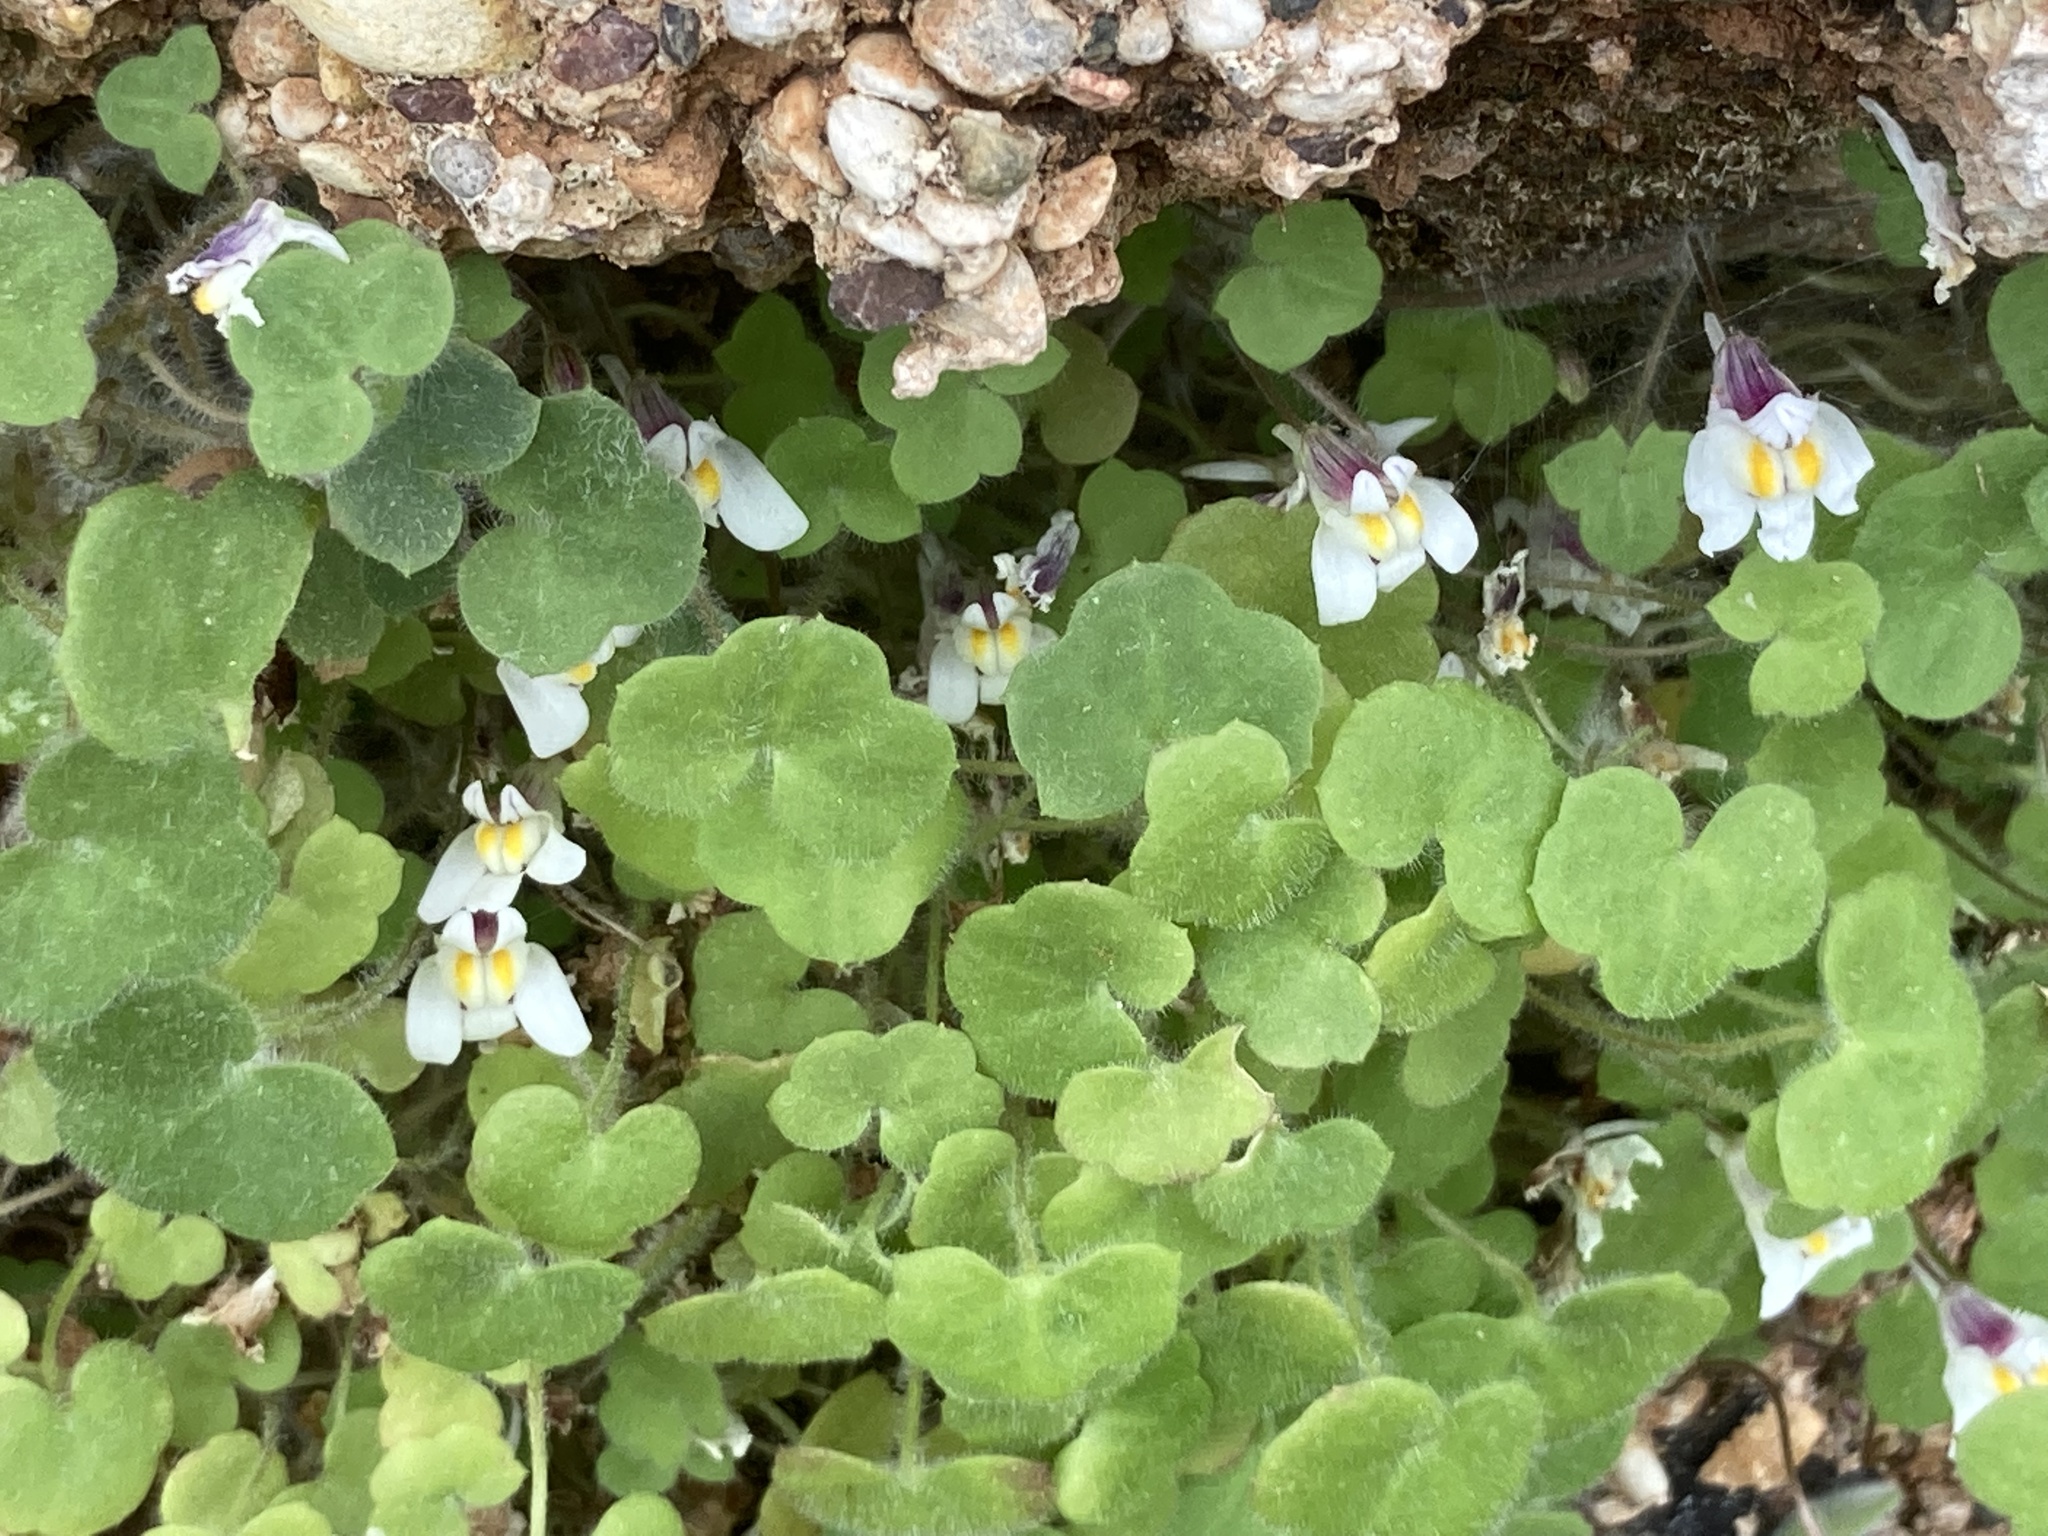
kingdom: Plantae
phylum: Tracheophyta
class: Magnoliopsida
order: Lamiales
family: Plantaginaceae
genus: Cymbalaria
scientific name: Cymbalaria acutiloba
